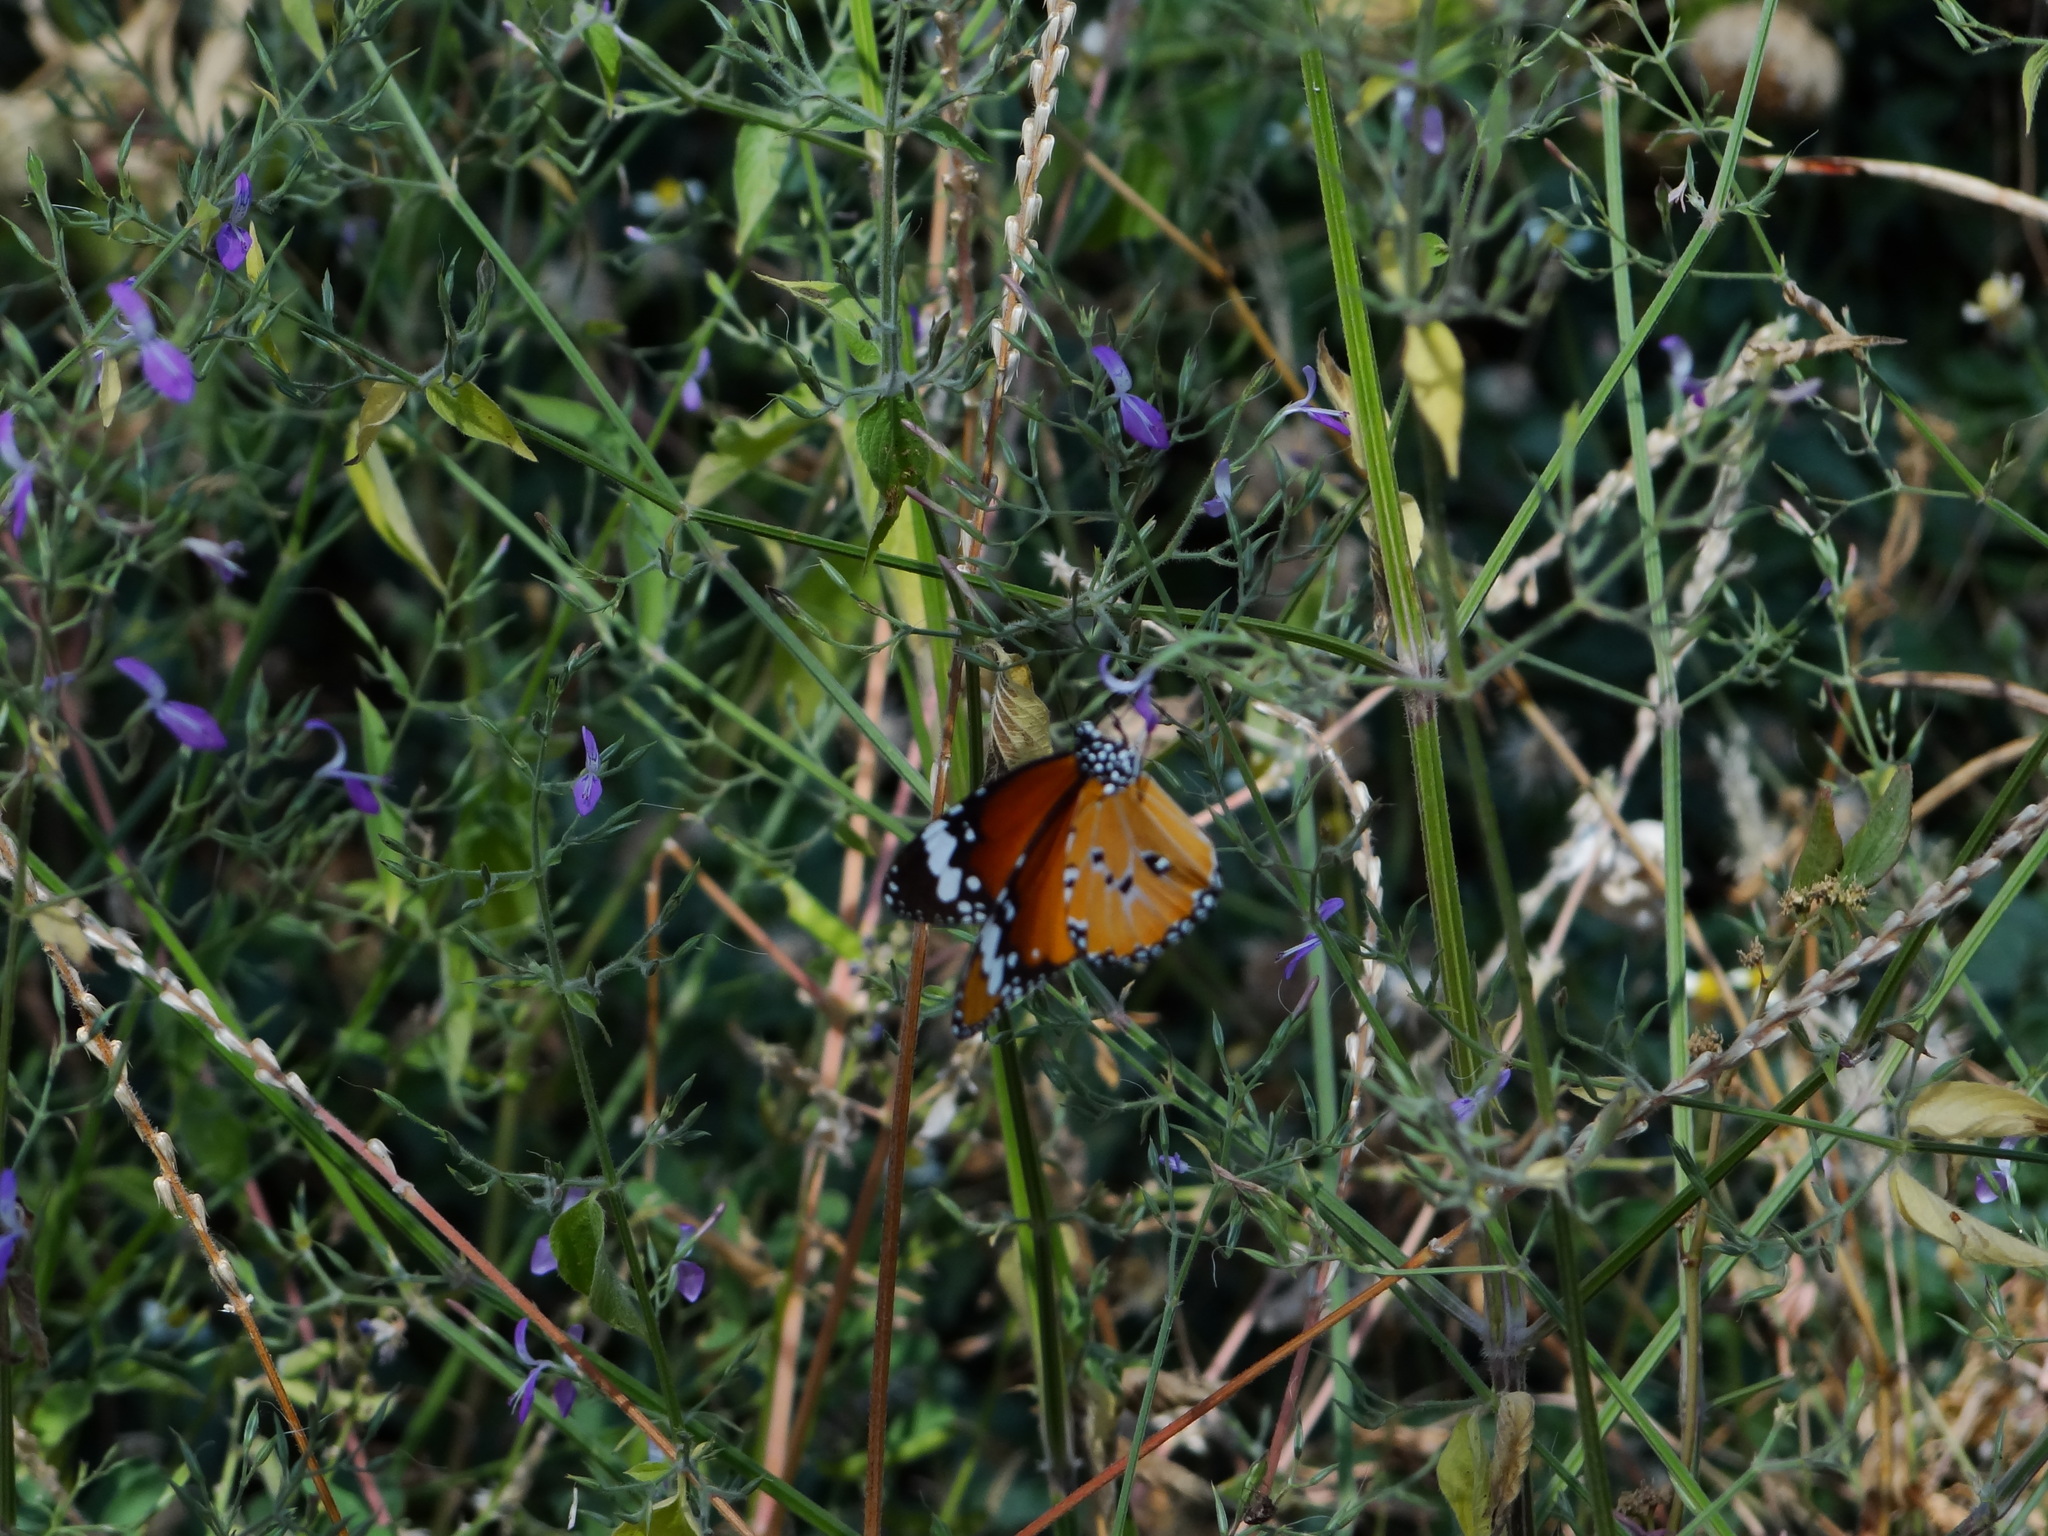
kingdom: Animalia
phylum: Arthropoda
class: Insecta
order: Lepidoptera
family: Nymphalidae
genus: Danaus
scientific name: Danaus chrysippus
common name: Plain tiger
